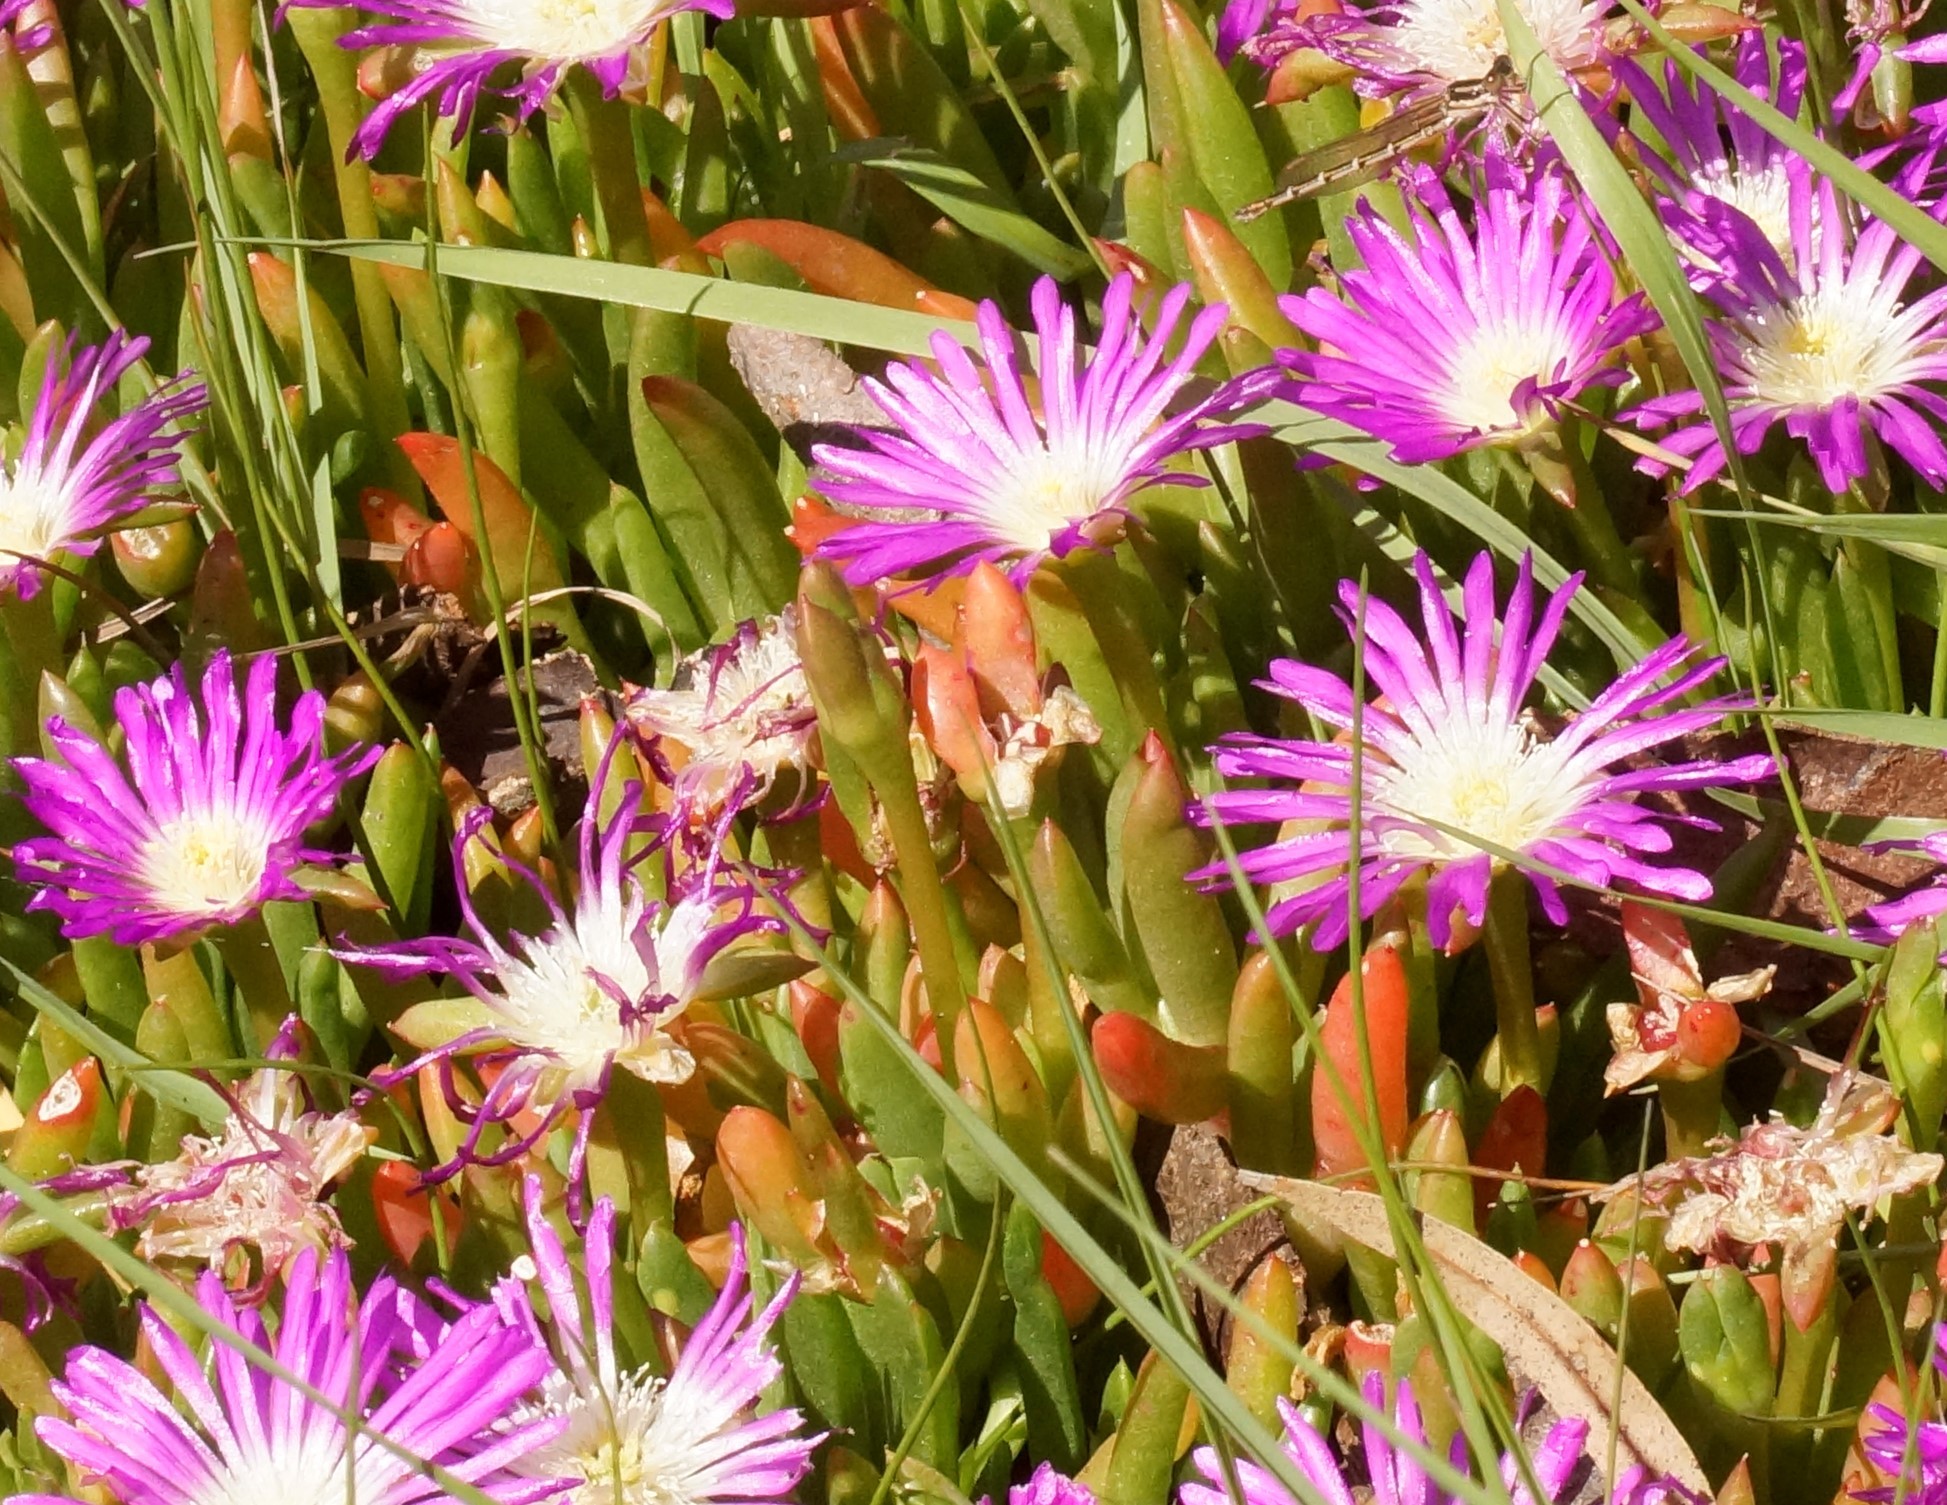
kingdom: Plantae
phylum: Tracheophyta
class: Magnoliopsida
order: Caryophyllales
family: Aizoaceae
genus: Disphyma
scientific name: Disphyma clavellatum
